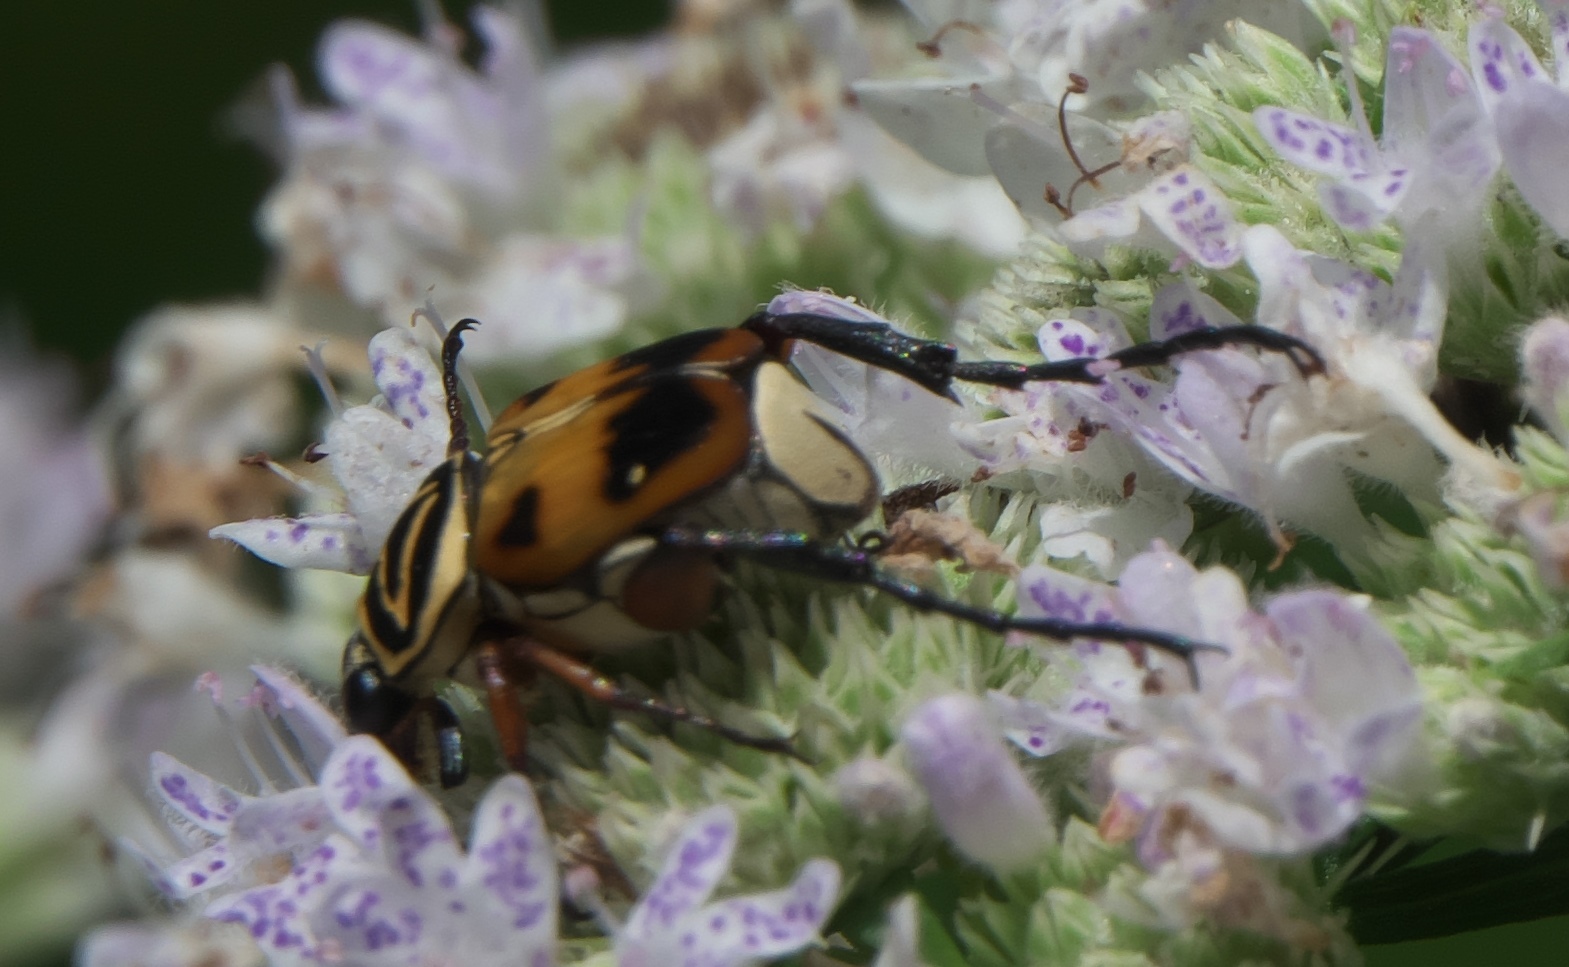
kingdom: Animalia
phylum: Arthropoda
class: Insecta
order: Coleoptera
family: Scarabaeidae
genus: Trigonopeltastes
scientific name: Trigonopeltastes delta
